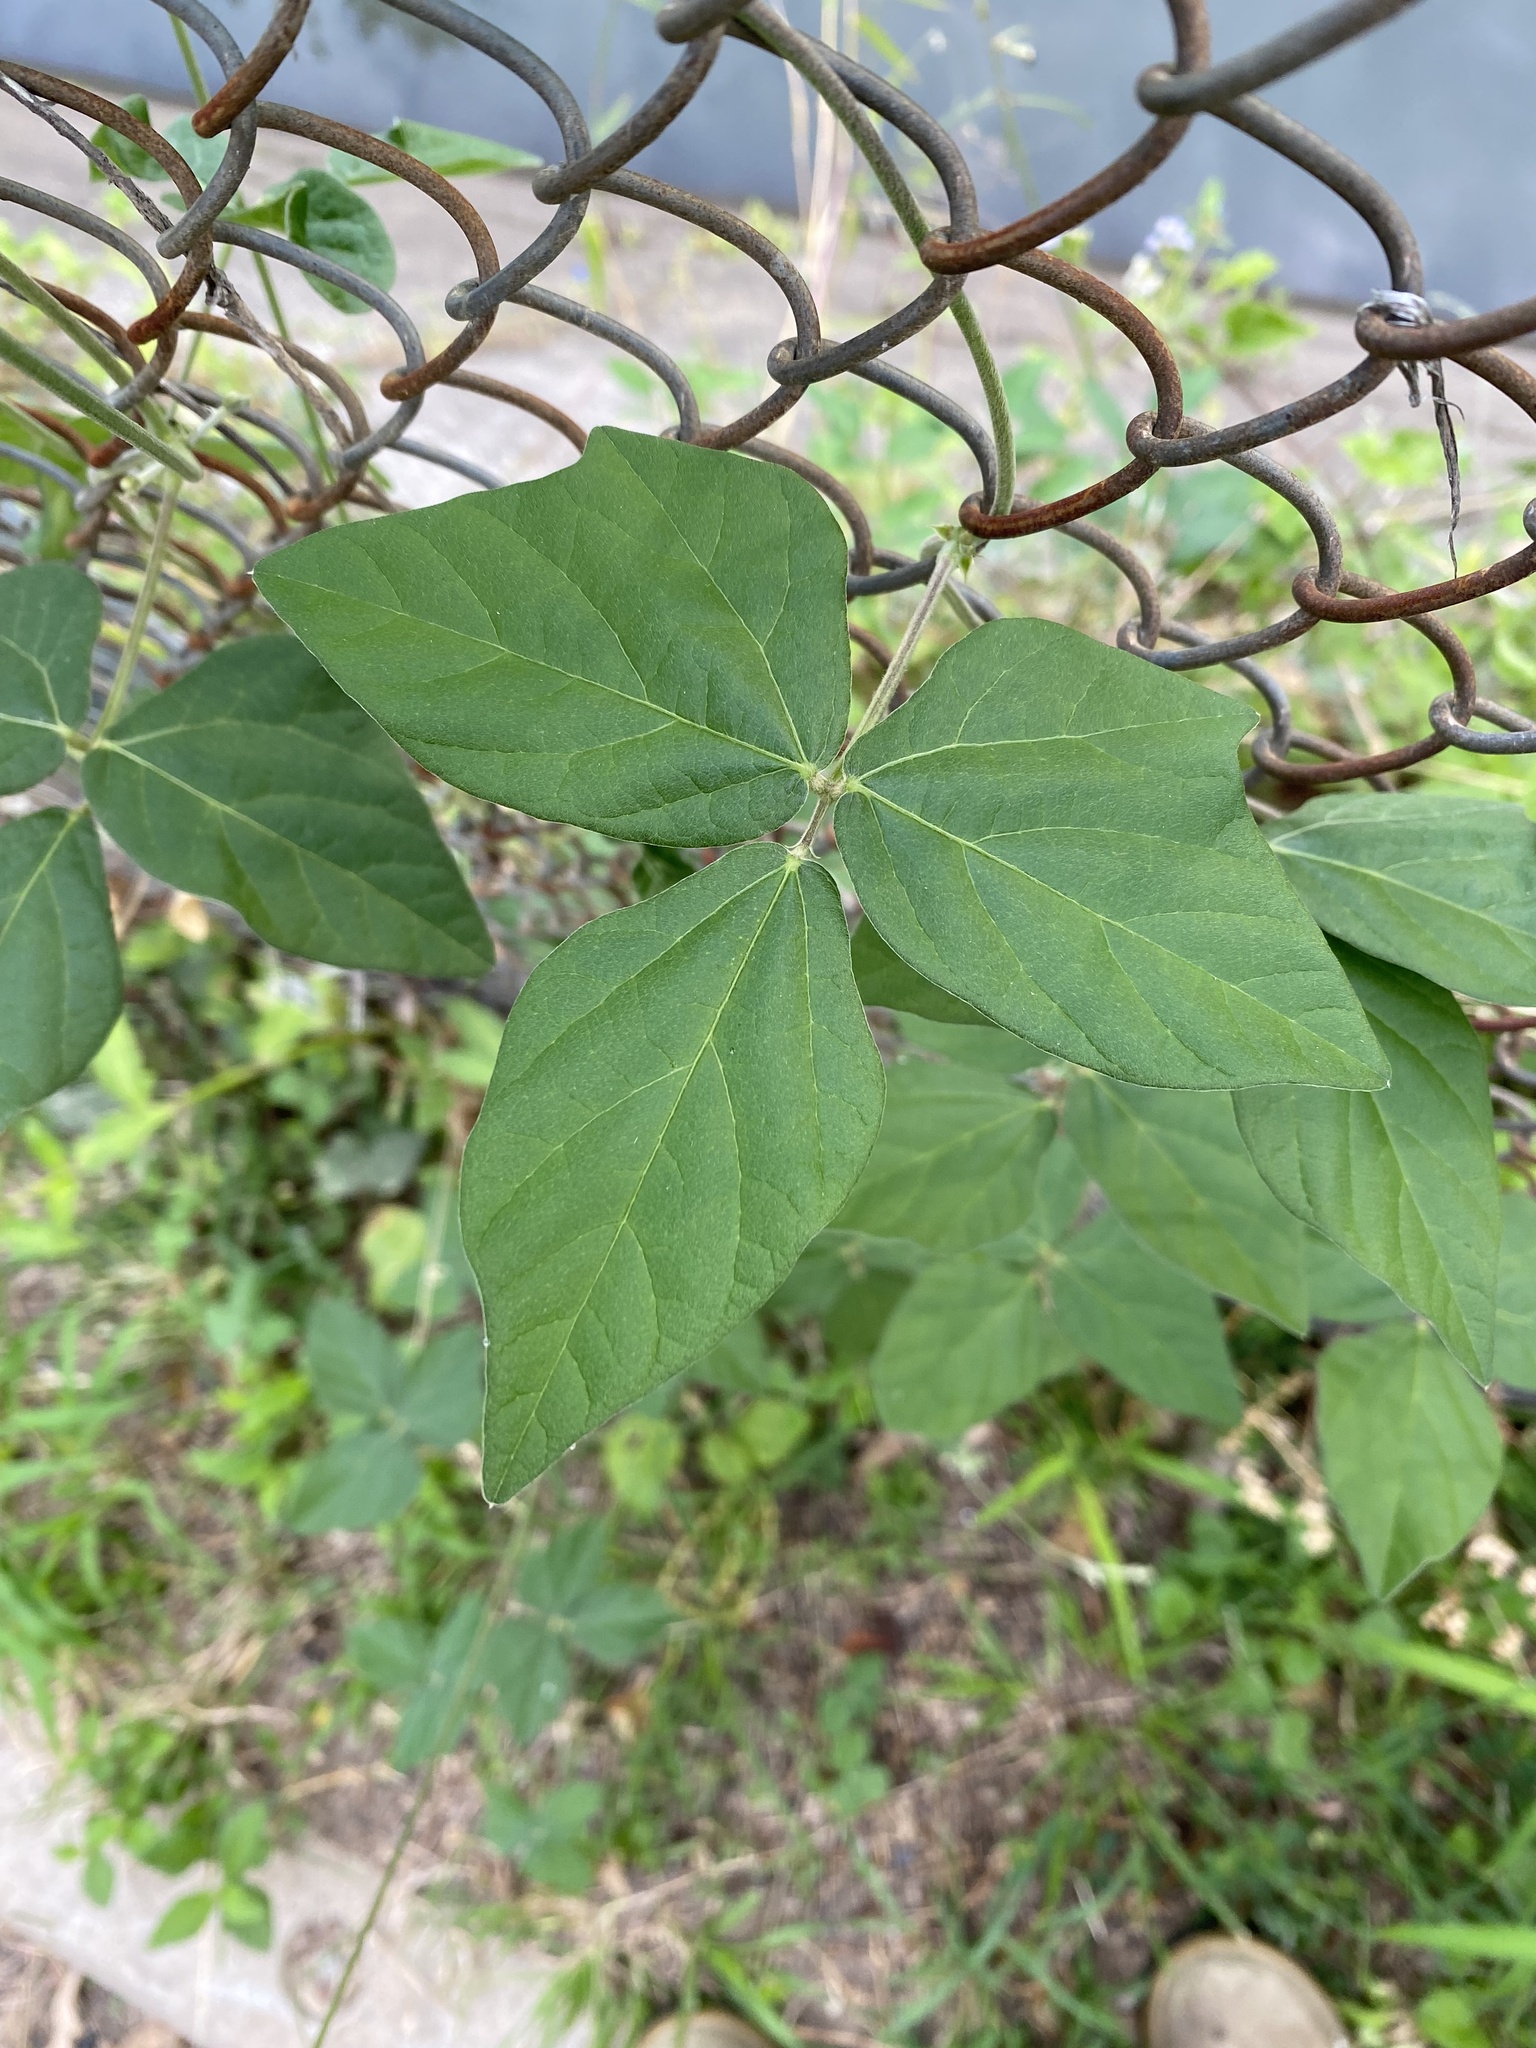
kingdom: Plantae
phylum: Tracheophyta
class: Magnoliopsida
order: Fabales
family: Fabaceae
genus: Macroptilium
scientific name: Macroptilium atropurpureum
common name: Purple bushbean
